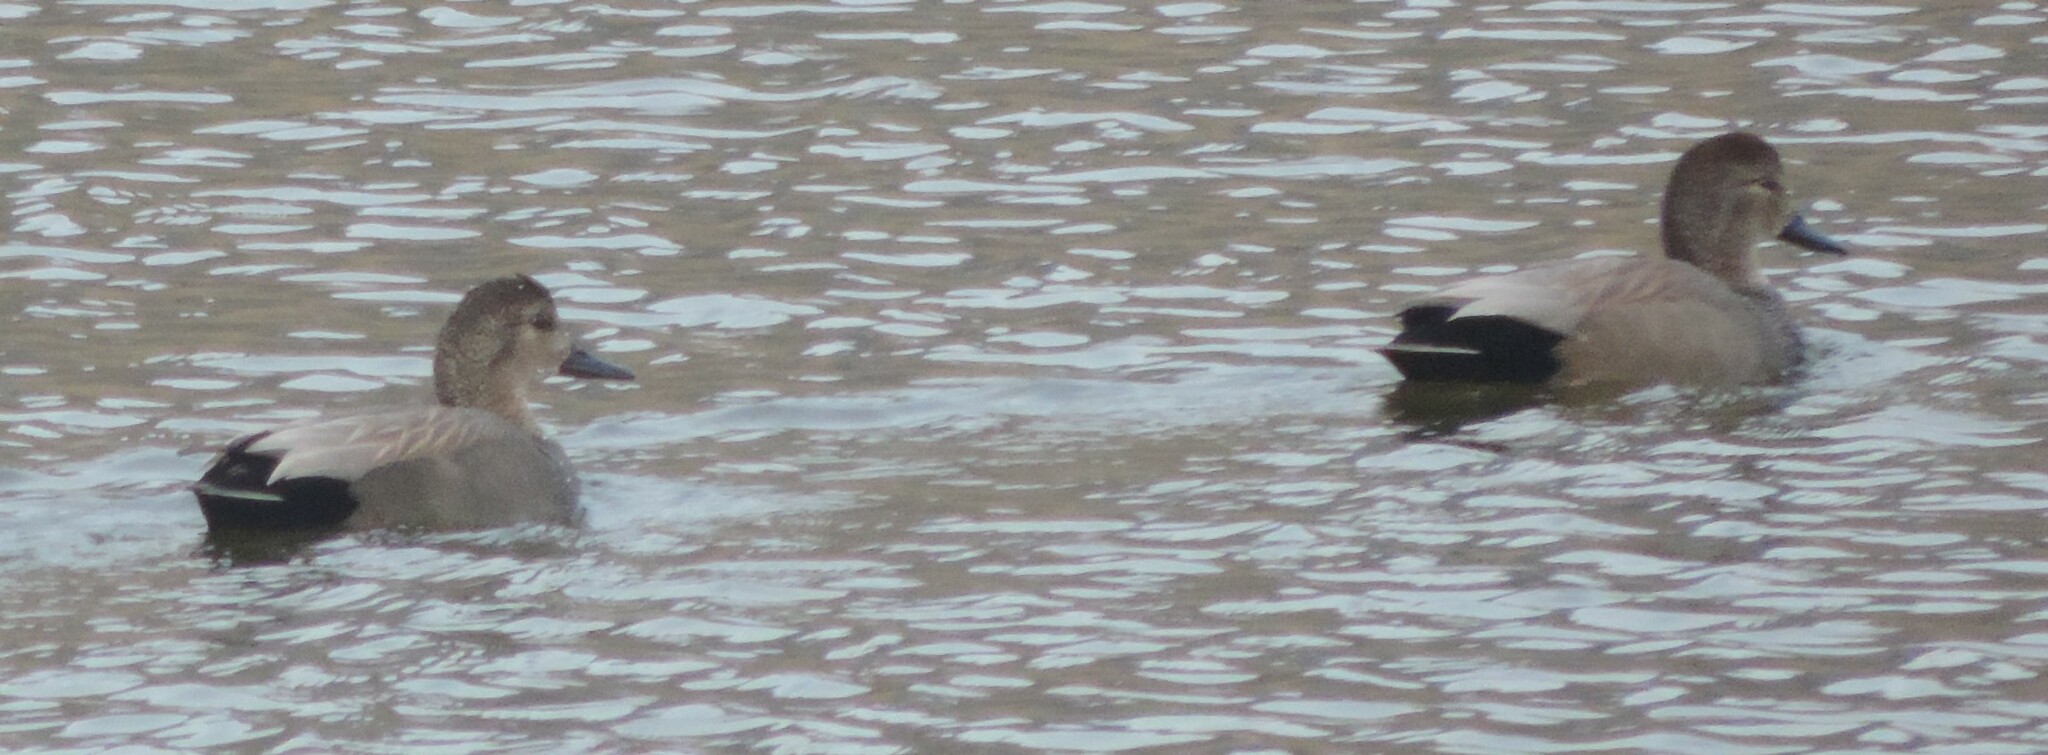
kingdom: Animalia
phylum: Chordata
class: Aves
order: Anseriformes
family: Anatidae
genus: Mareca
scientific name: Mareca strepera
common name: Gadwall
